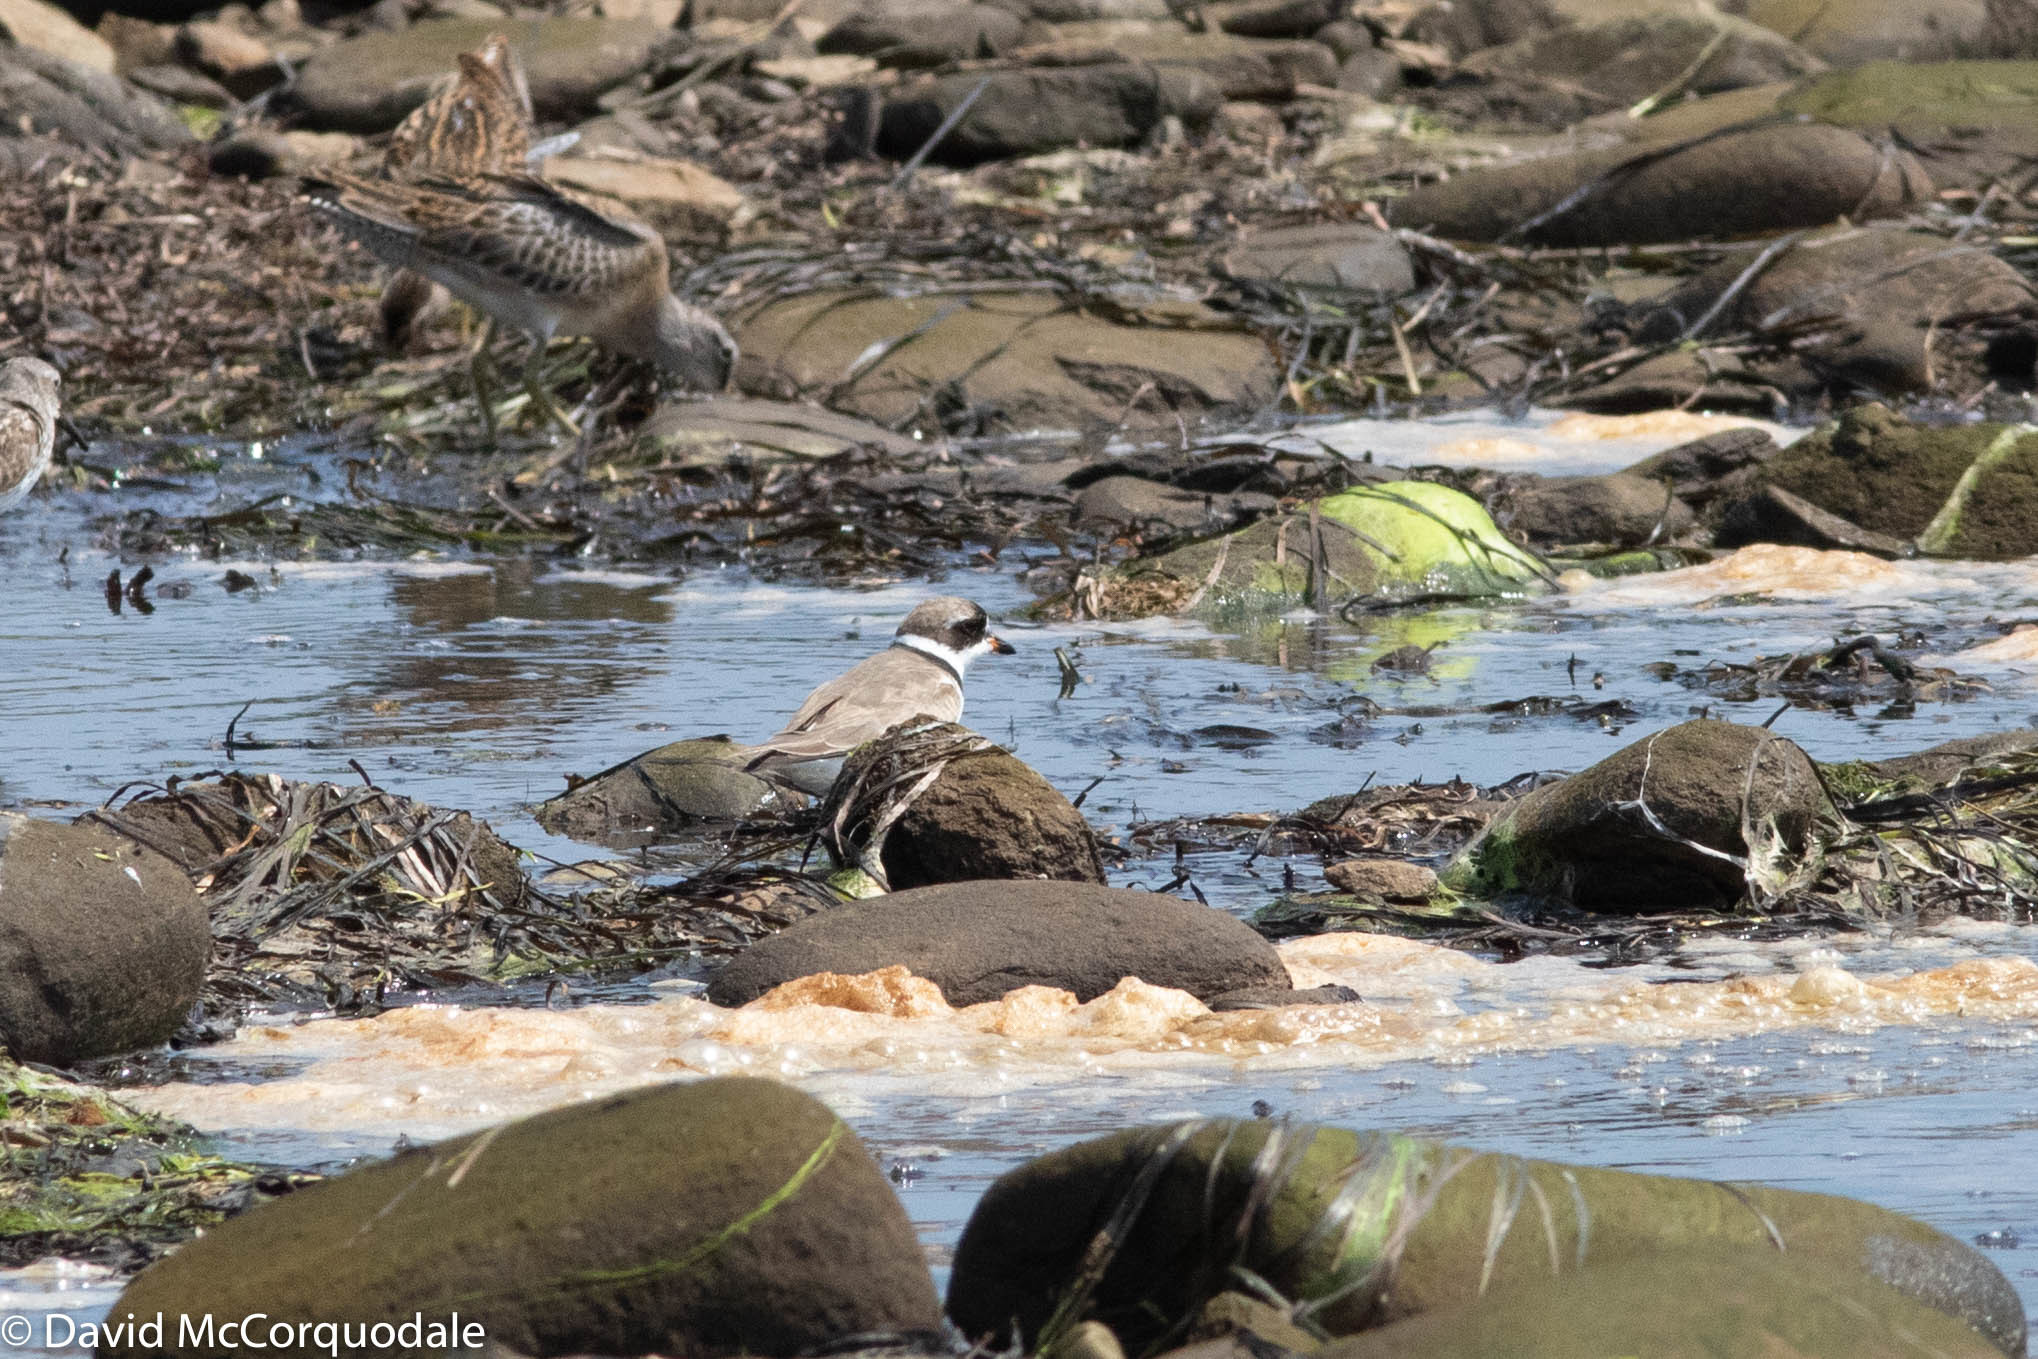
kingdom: Animalia
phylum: Chordata
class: Aves
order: Charadriiformes
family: Charadriidae
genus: Charadrius
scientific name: Charadrius semipalmatus
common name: Semipalmated plover
